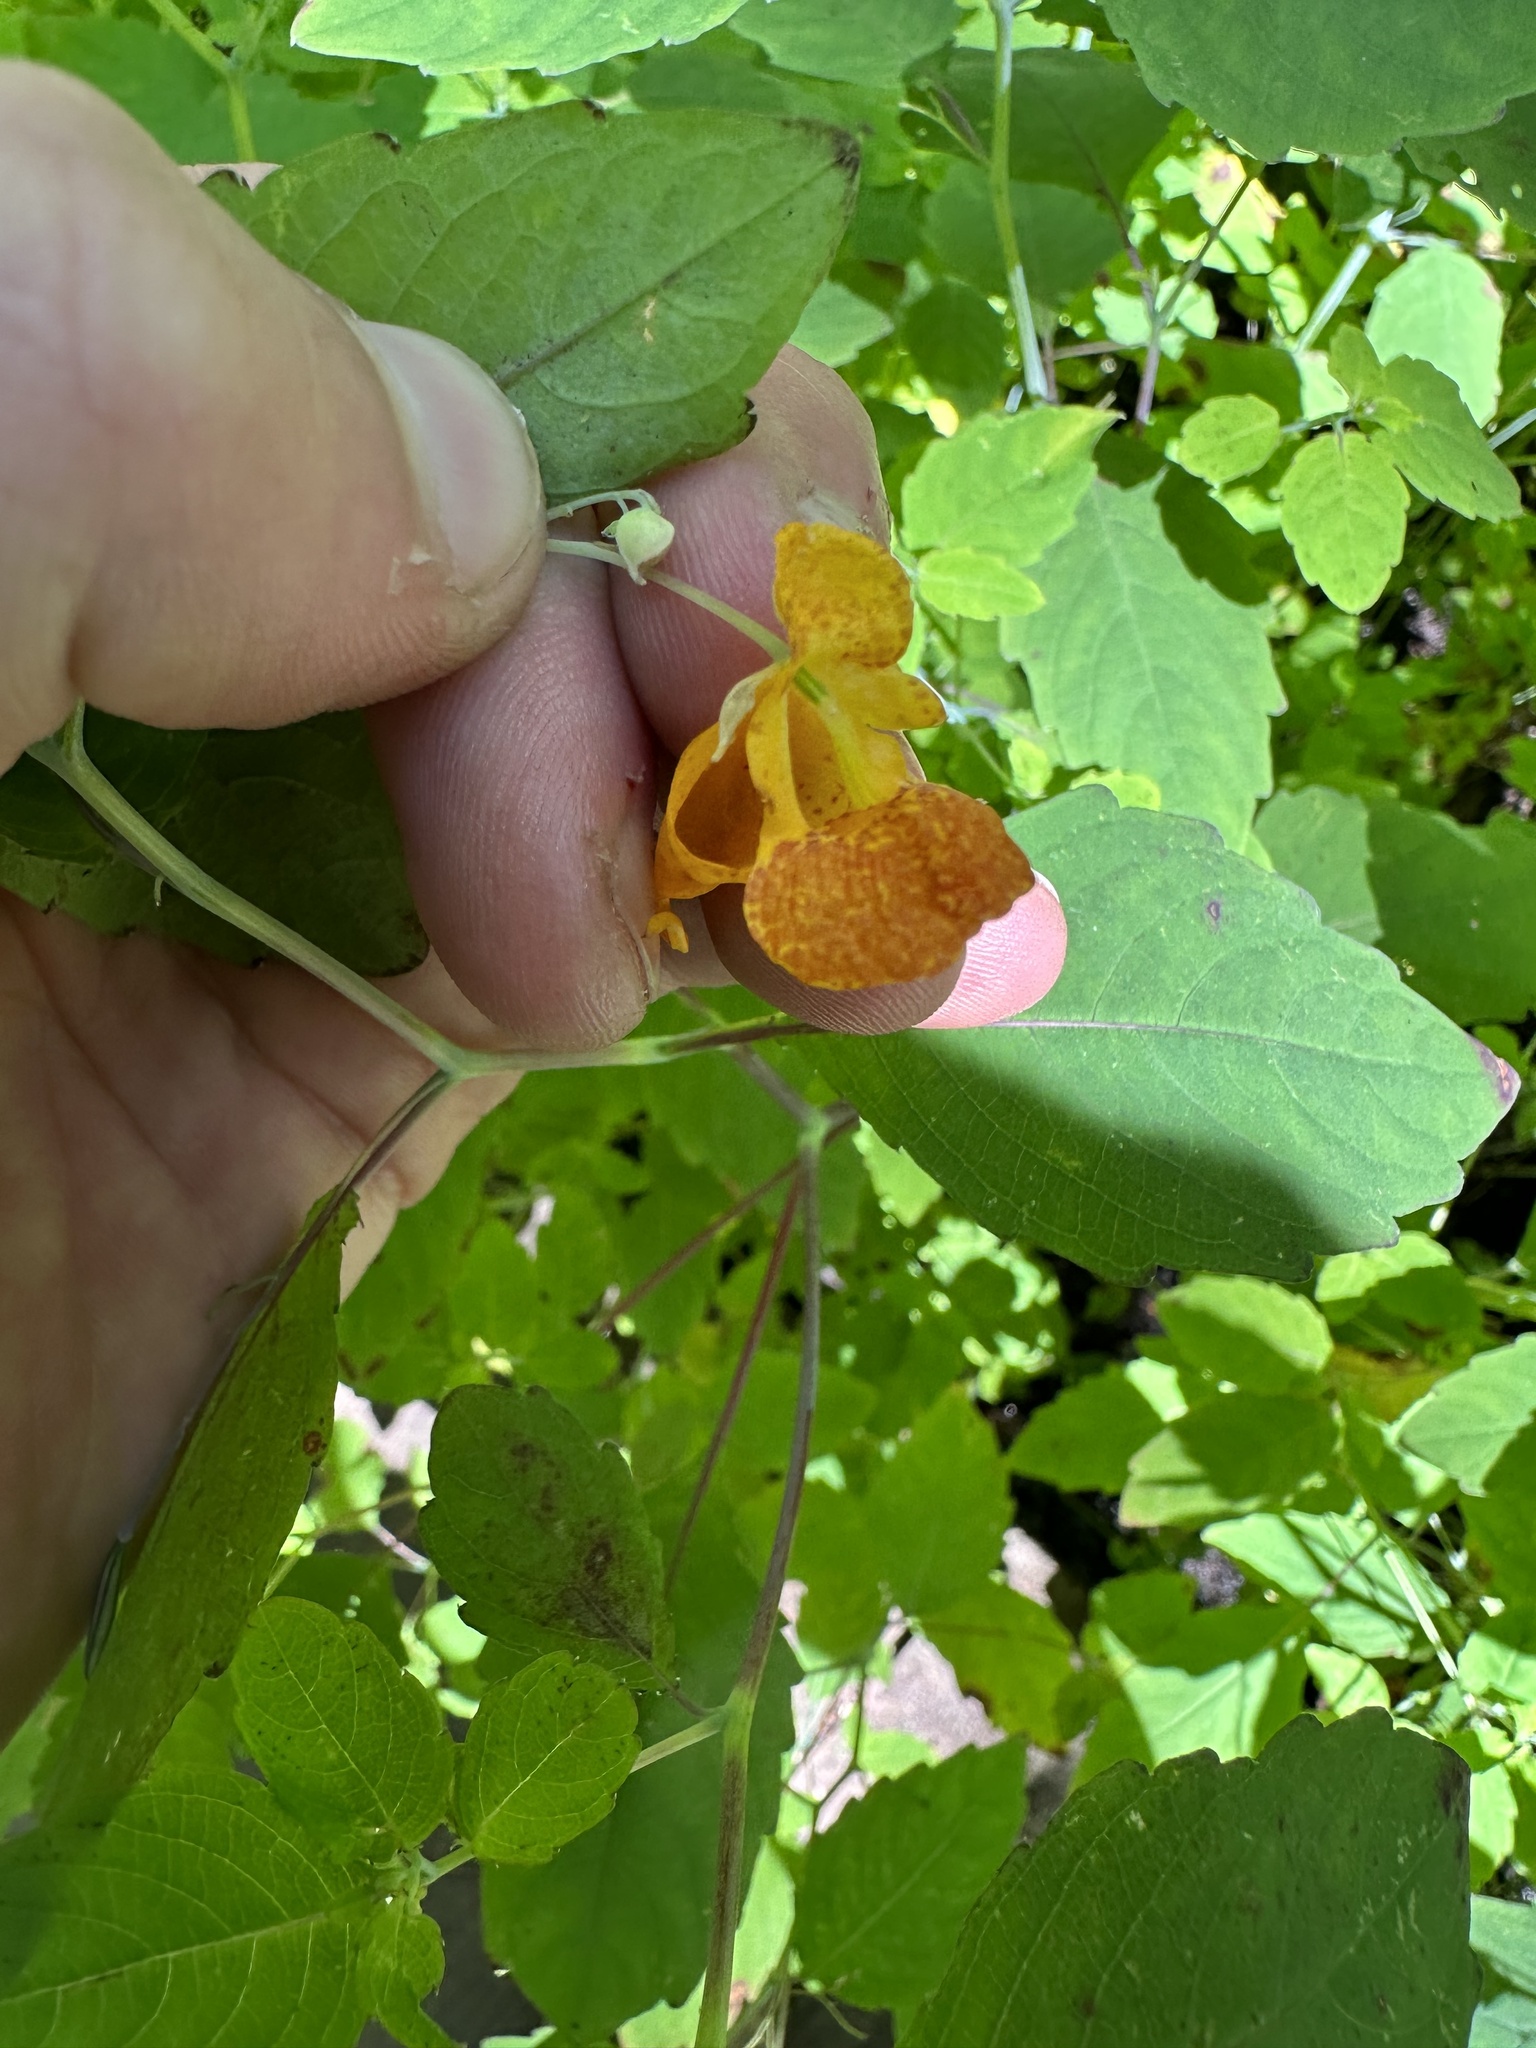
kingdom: Plantae
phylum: Tracheophyta
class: Magnoliopsida
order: Ericales
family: Balsaminaceae
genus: Impatiens
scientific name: Impatiens capensis
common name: Orange balsam
